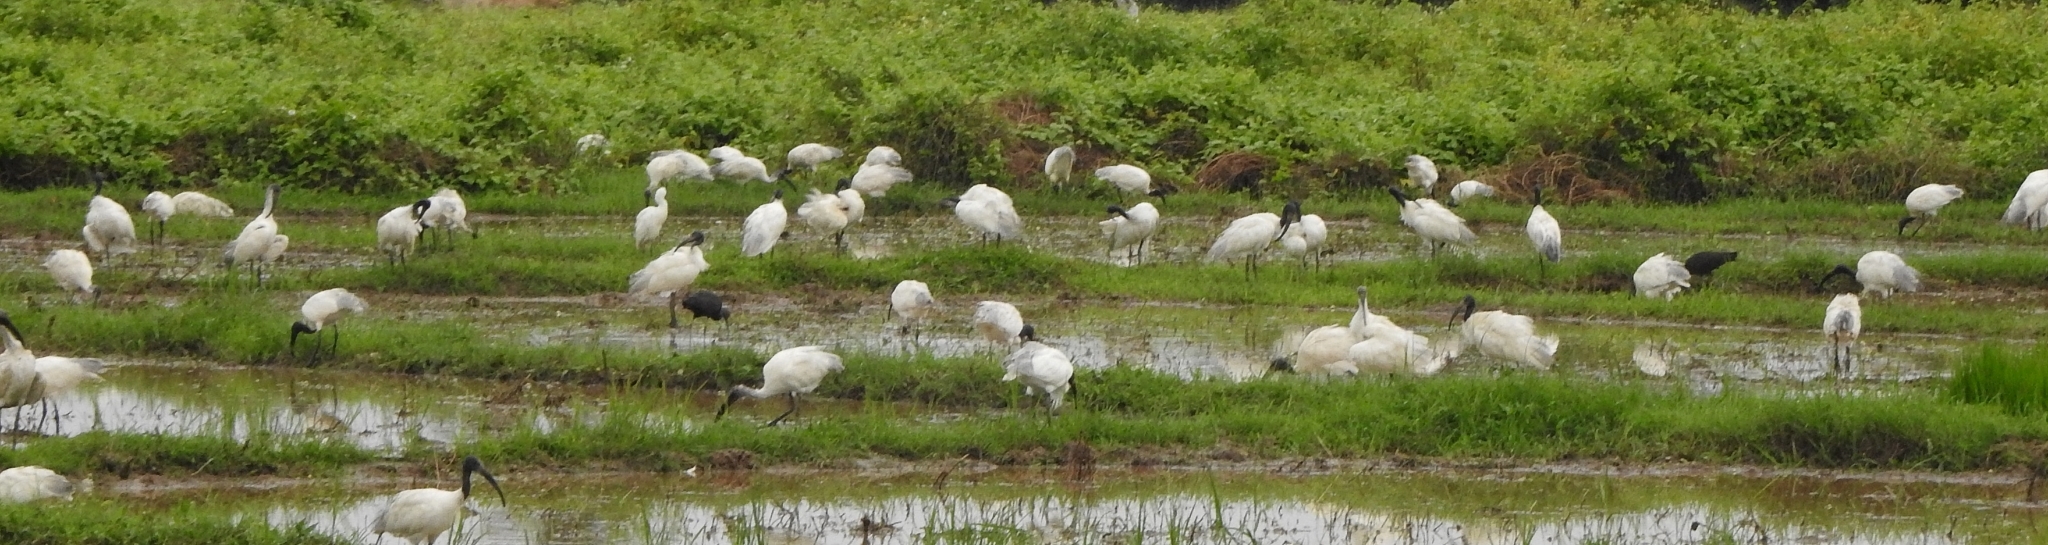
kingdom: Animalia
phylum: Chordata
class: Aves
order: Pelecaniformes
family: Threskiornithidae
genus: Threskiornis
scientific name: Threskiornis melanocephalus
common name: Black-headed ibis
